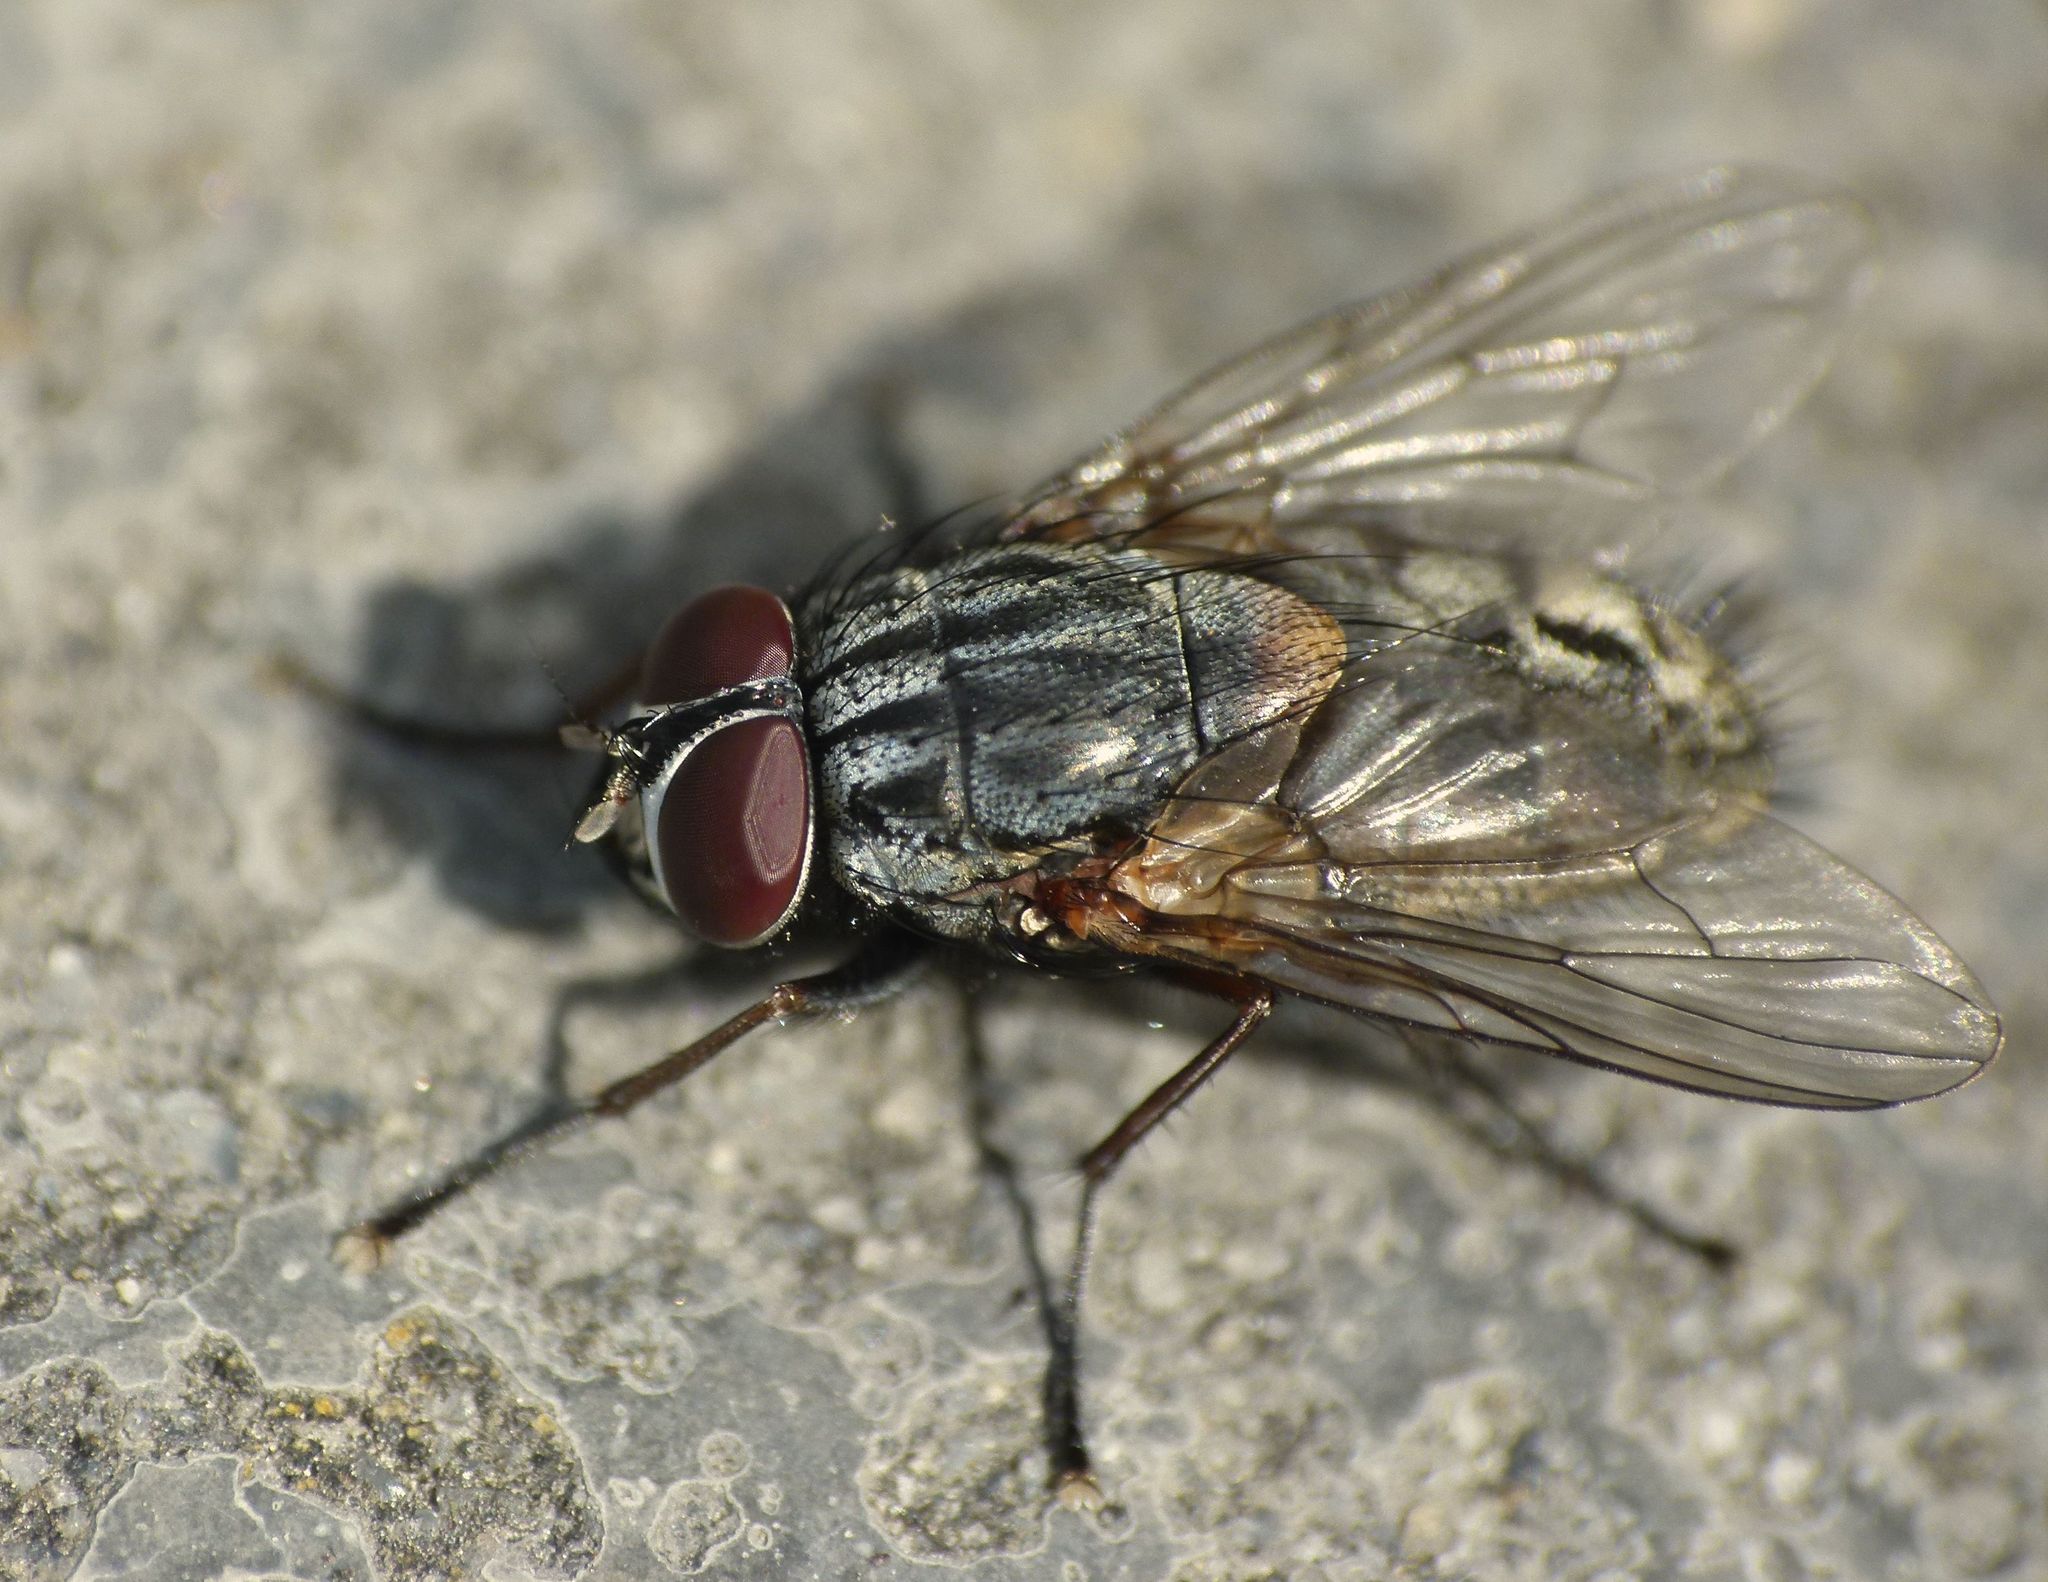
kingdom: Animalia
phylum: Arthropoda
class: Insecta
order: Diptera
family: Muscidae
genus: Muscina
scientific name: Muscina stabulans
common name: False stable fly
